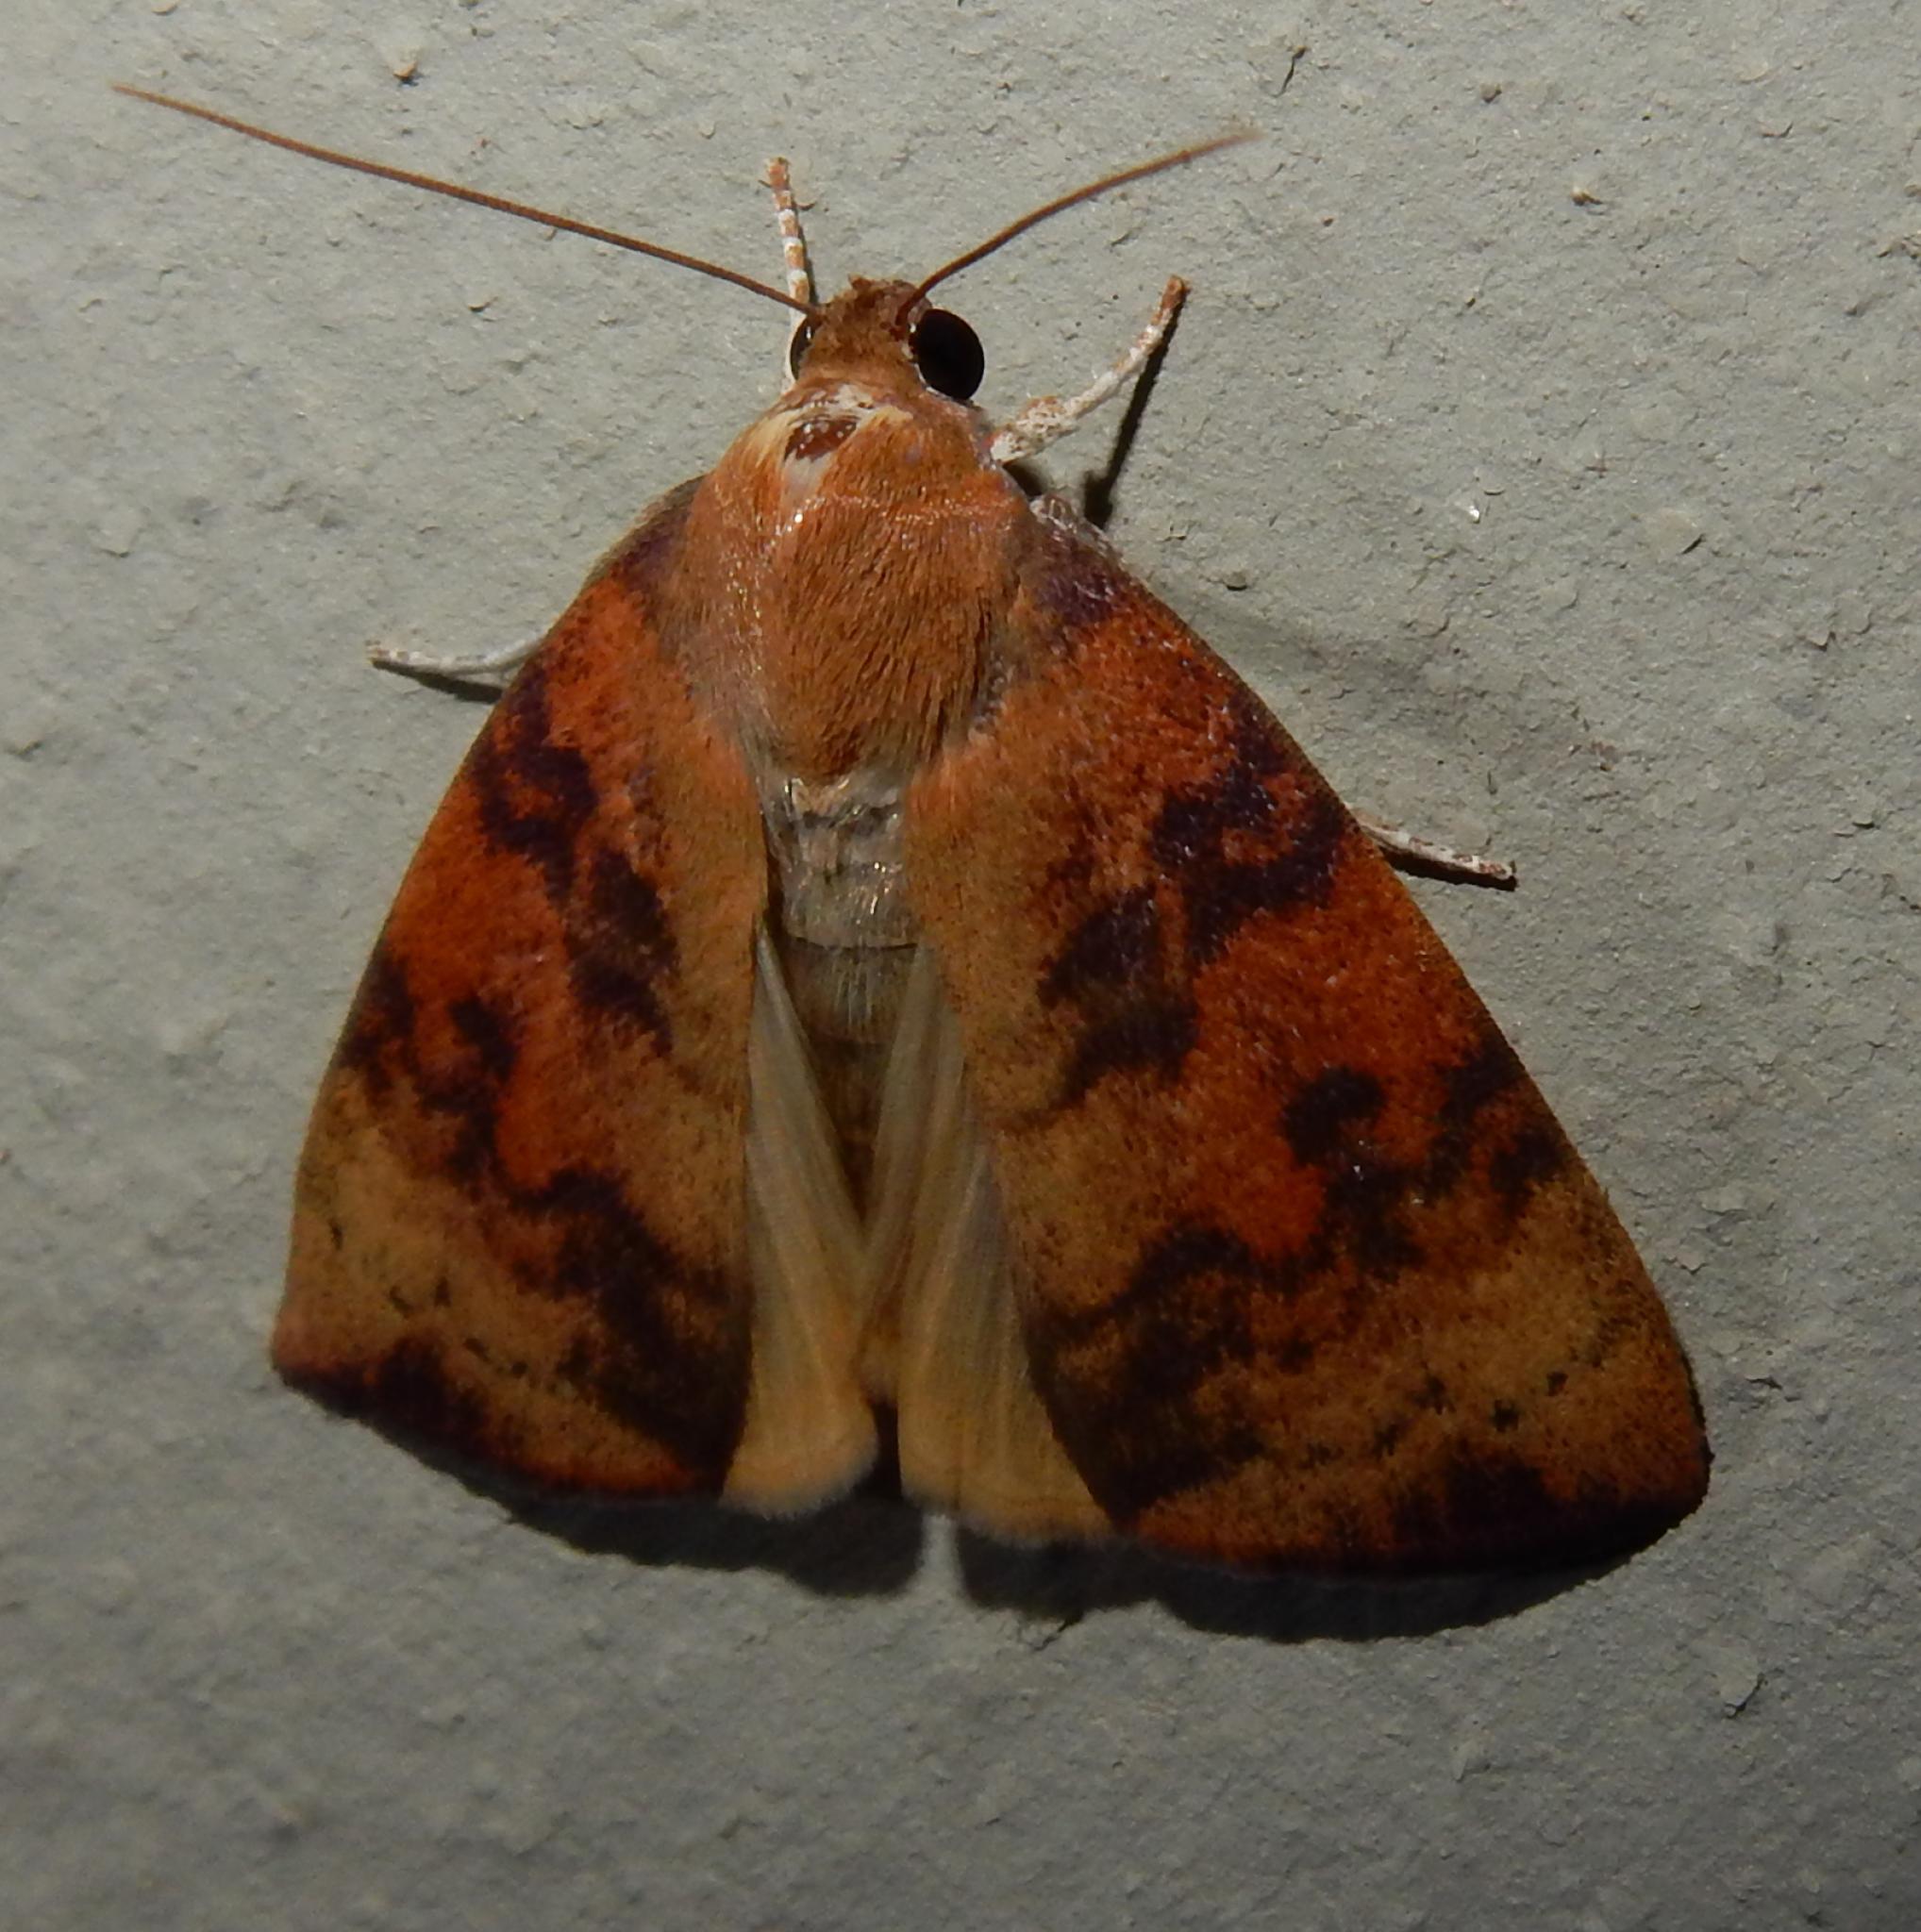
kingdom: Animalia
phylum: Arthropoda
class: Insecta
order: Lepidoptera
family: Nolidae
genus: Maurilia
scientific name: Maurilia arcuata
